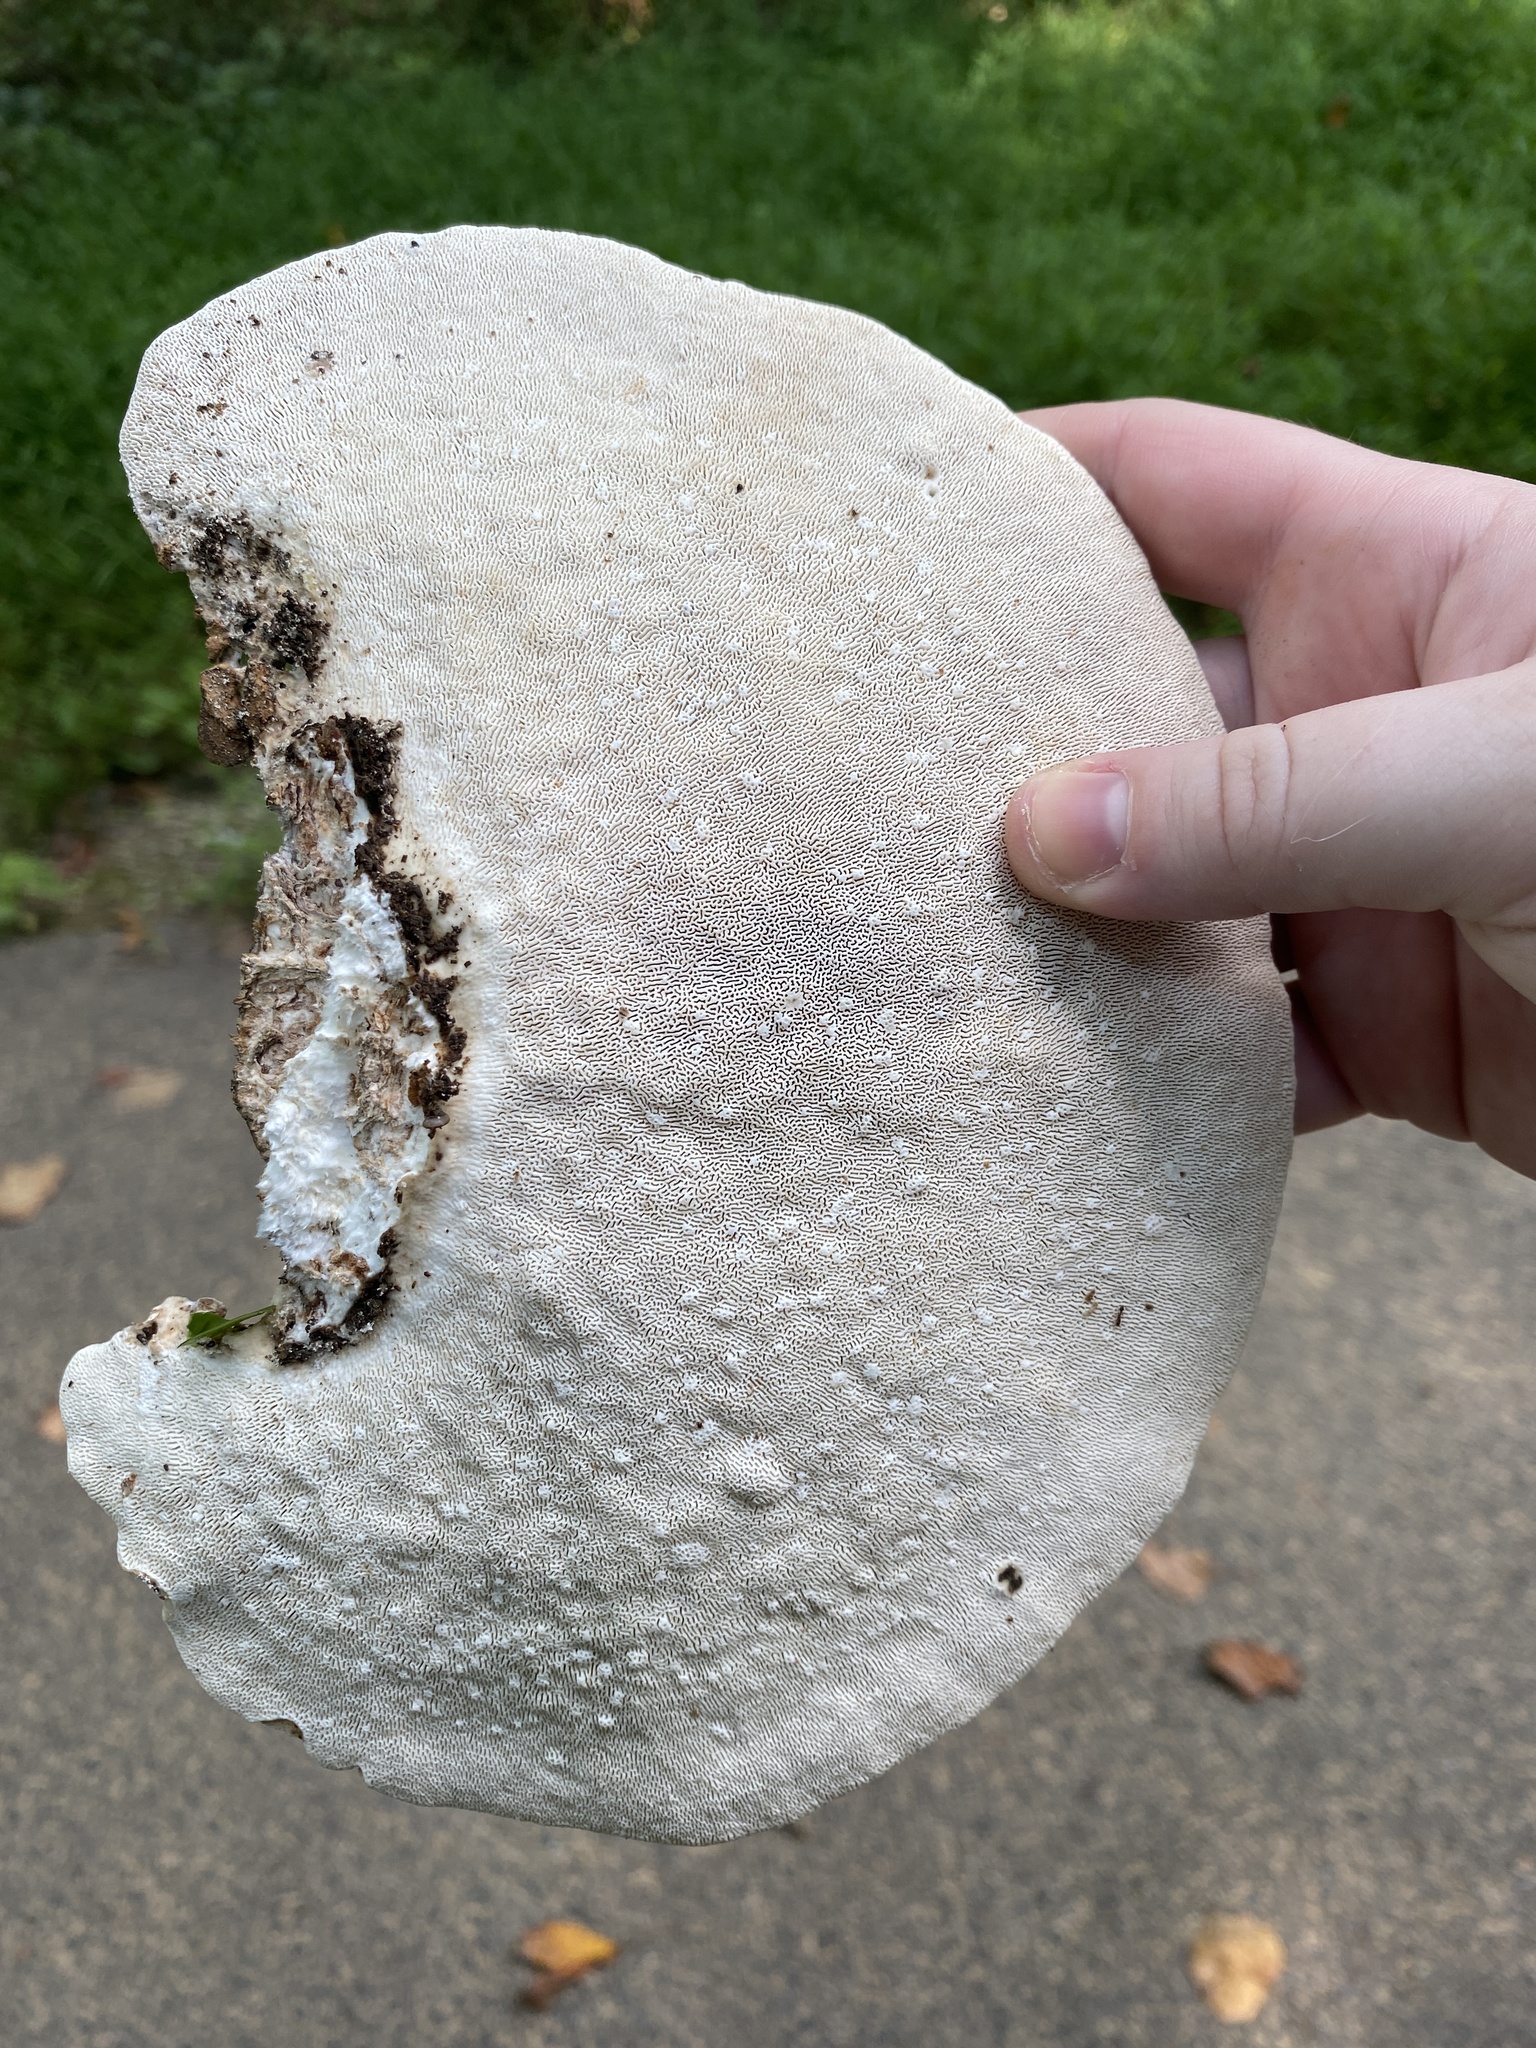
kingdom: Fungi
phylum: Basidiomycota
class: Agaricomycetes
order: Polyporales
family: Polyporaceae
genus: Trametes
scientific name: Trametes gibbosa
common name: Lumpy bracket
